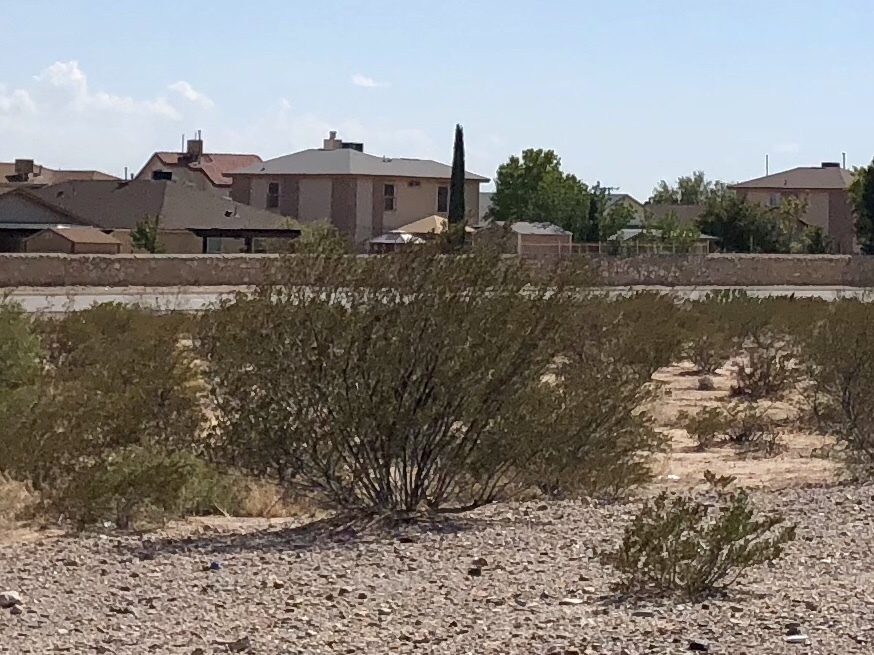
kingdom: Plantae
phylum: Tracheophyta
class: Magnoliopsida
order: Zygophyllales
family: Zygophyllaceae
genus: Larrea
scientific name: Larrea tridentata
